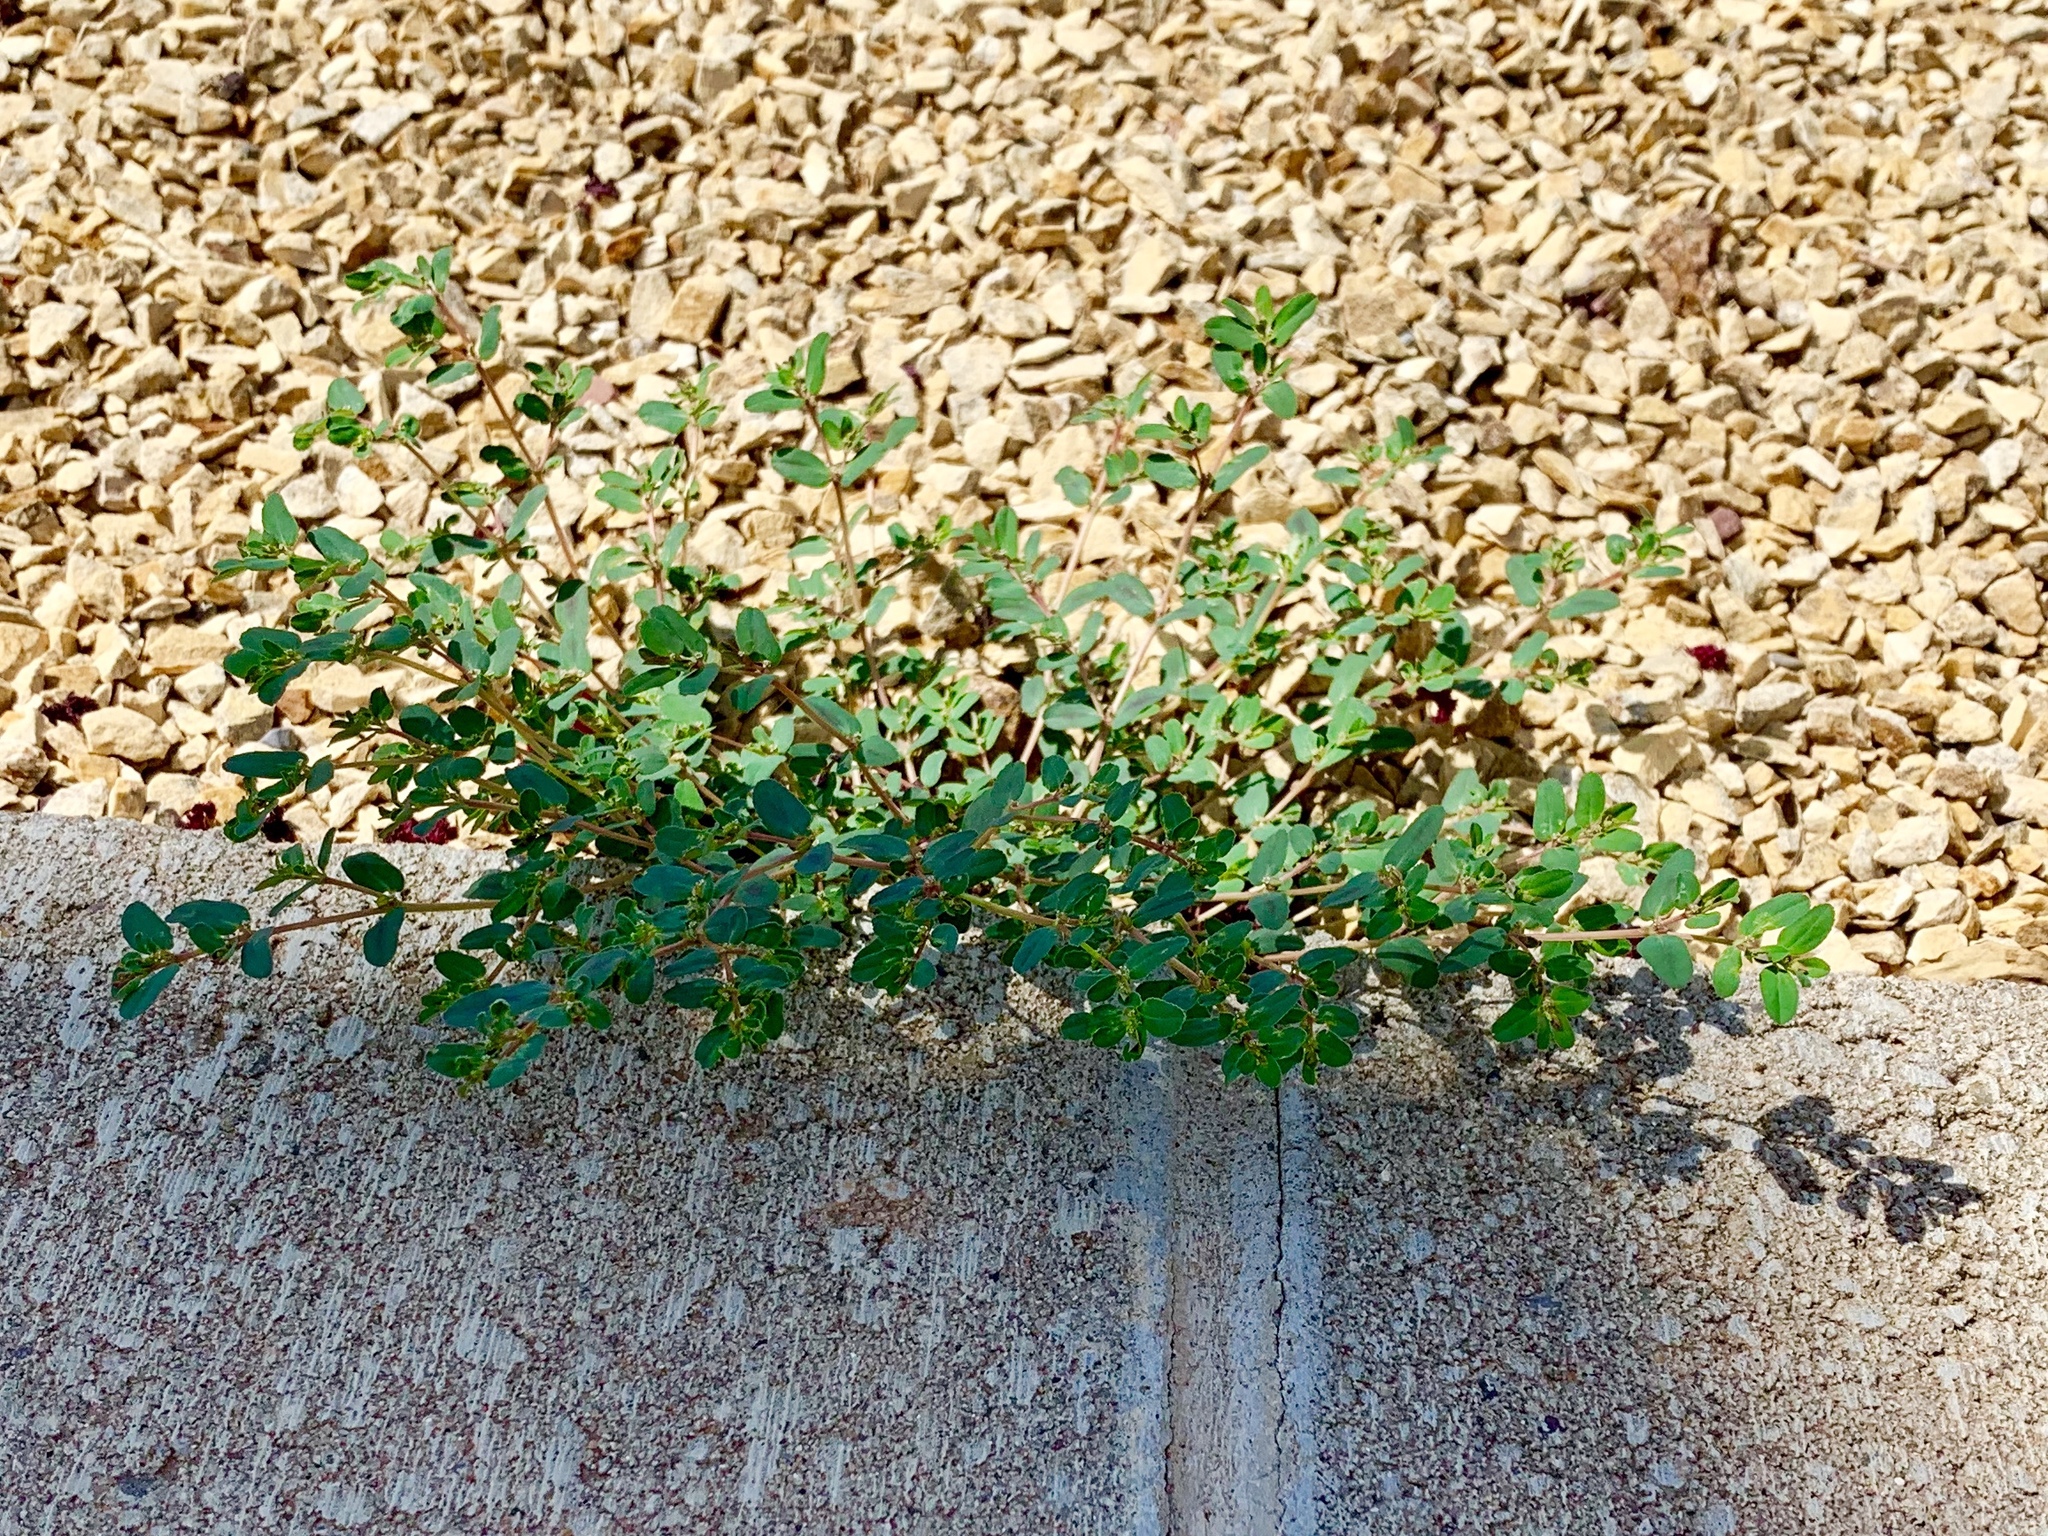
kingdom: Plantae
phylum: Tracheophyta
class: Magnoliopsida
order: Malpighiales
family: Euphorbiaceae
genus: Euphorbia
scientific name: Euphorbia serpillifolia
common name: Thyme-leaf spurge
